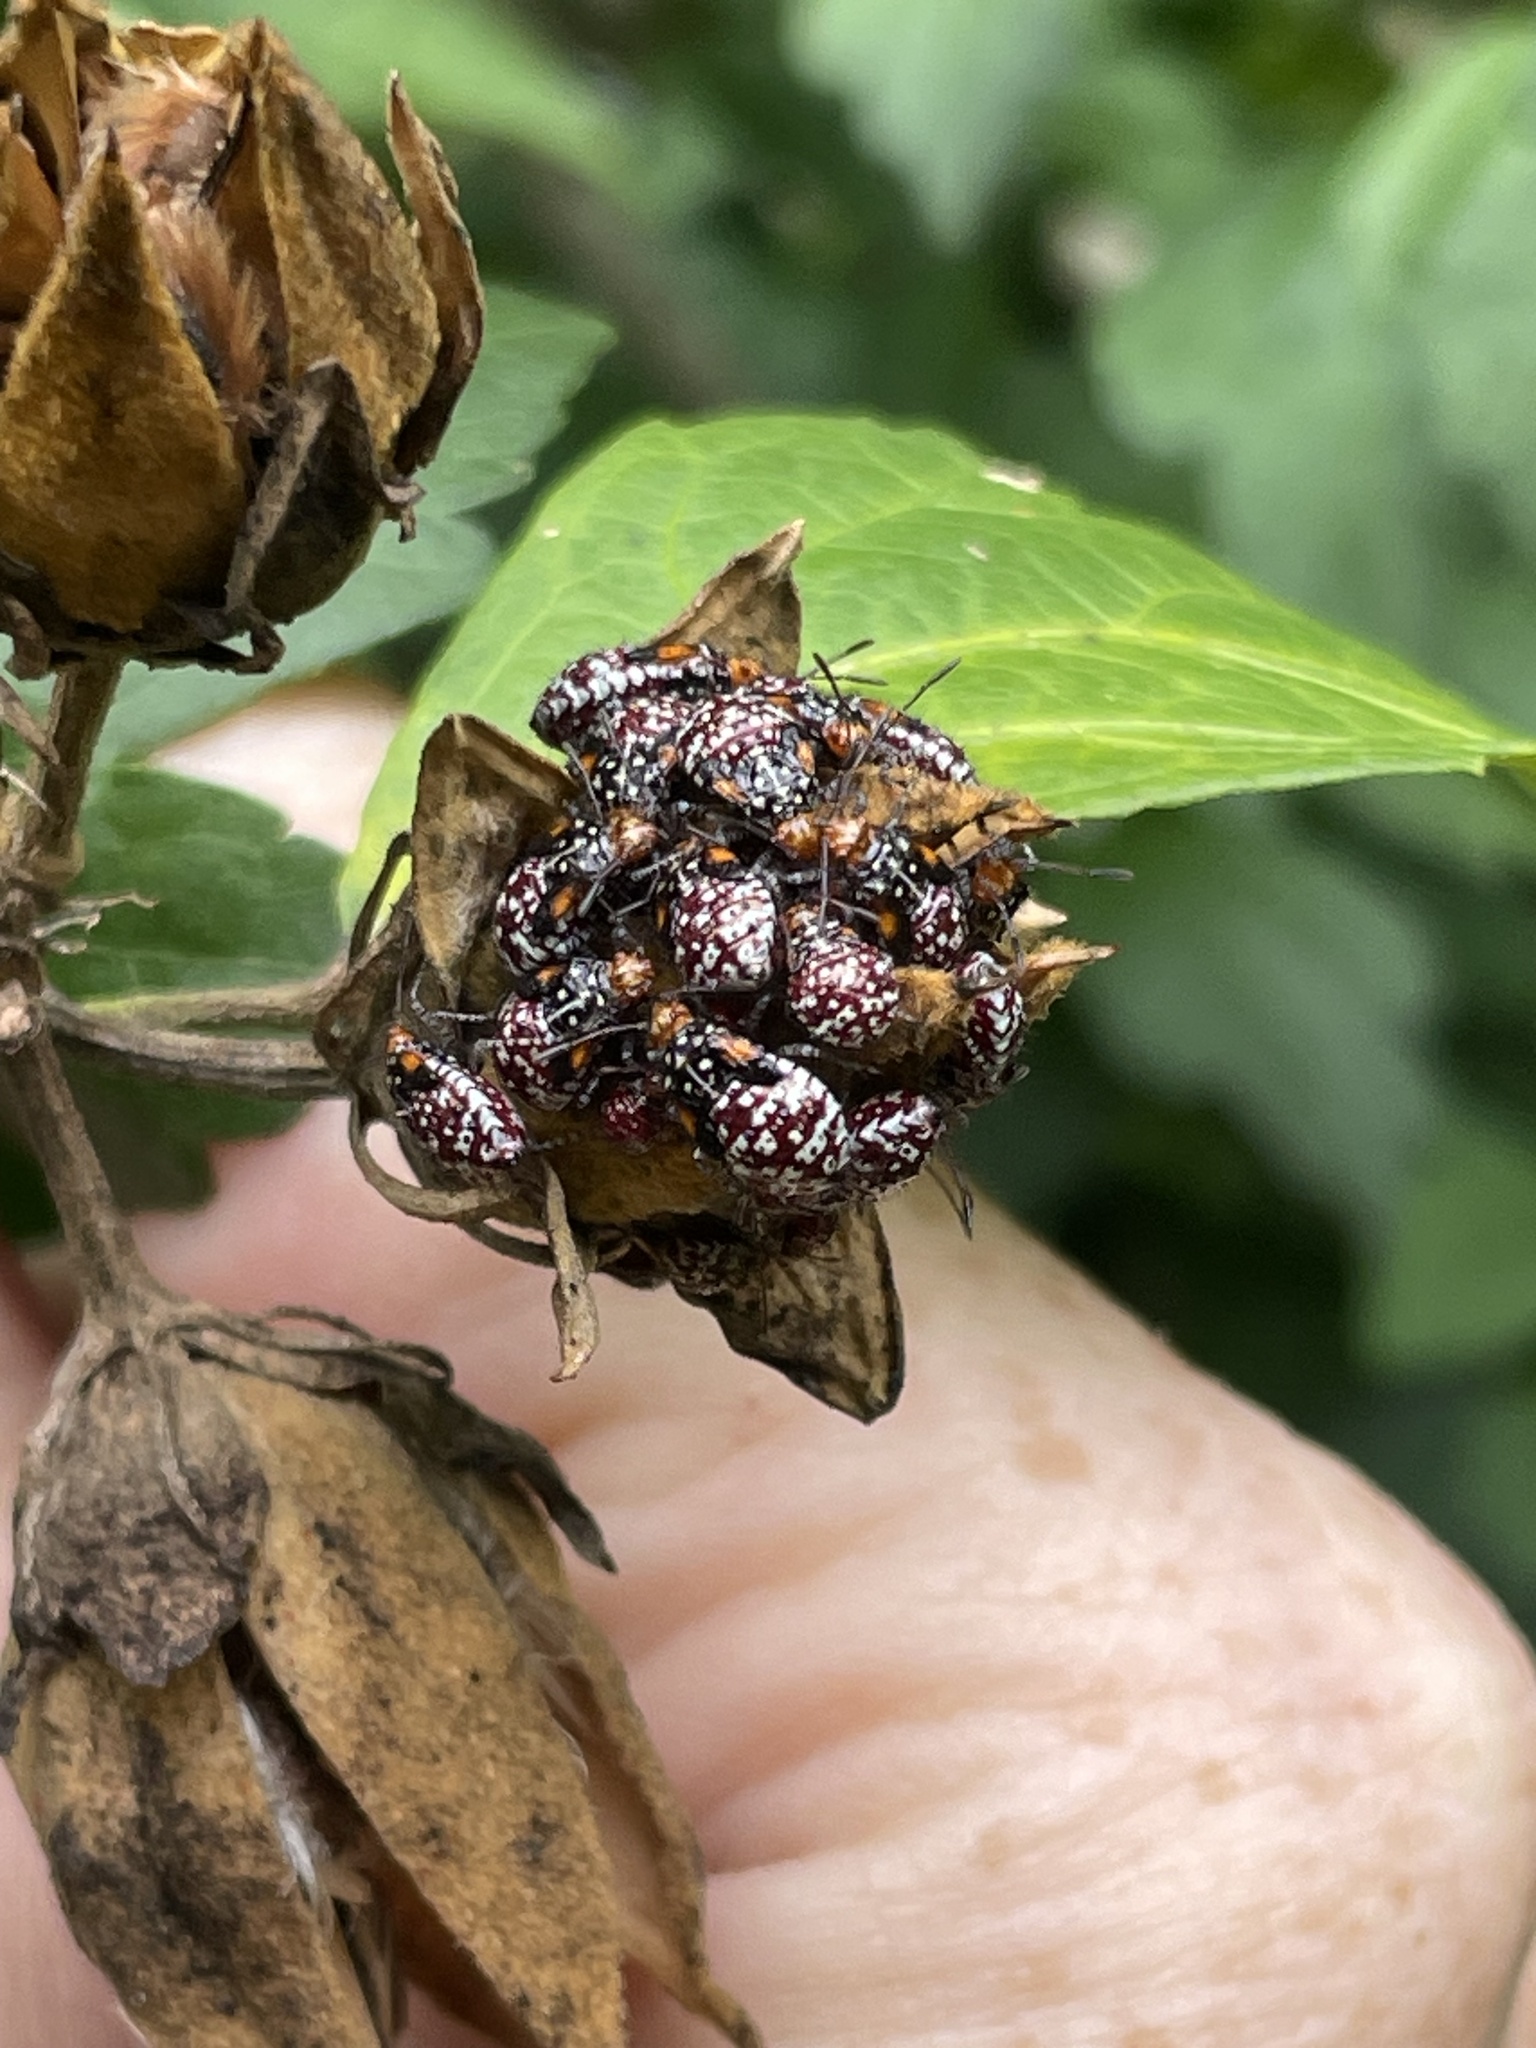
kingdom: Animalia
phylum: Arthropoda
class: Insecta
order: Hemiptera
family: Rhopalidae
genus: Niesthrea
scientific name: Niesthrea louisianica
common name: Scentless plant bug
